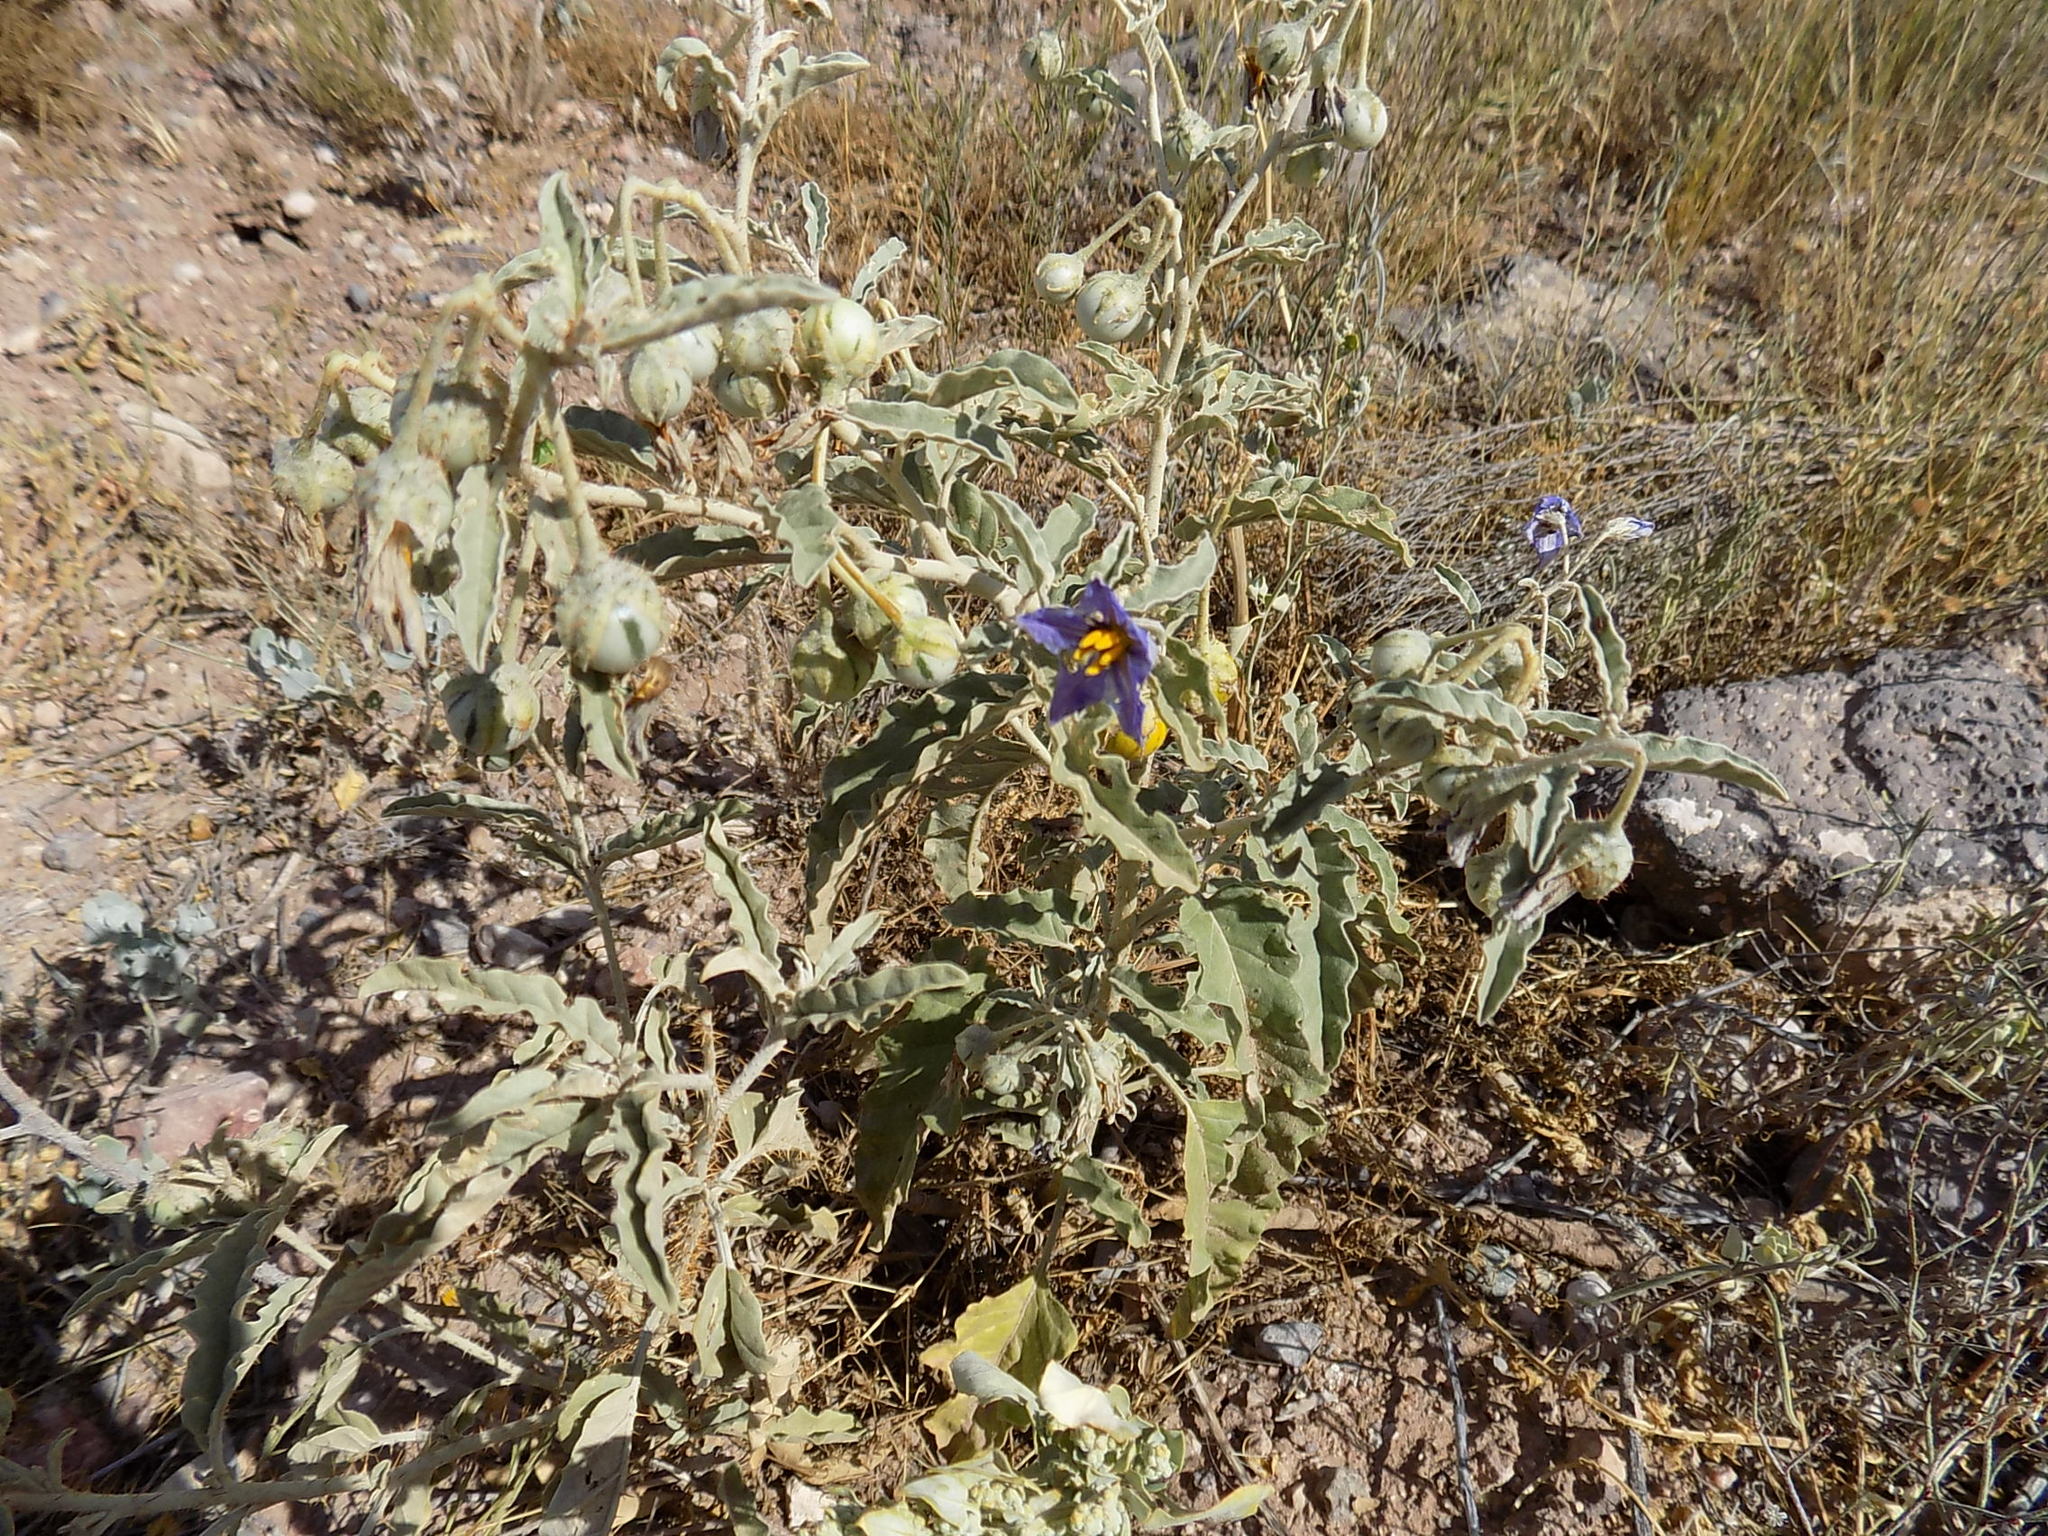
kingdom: Plantae
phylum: Tracheophyta
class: Magnoliopsida
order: Solanales
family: Solanaceae
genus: Solanum
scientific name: Solanum elaeagnifolium
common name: Silverleaf nightshade
